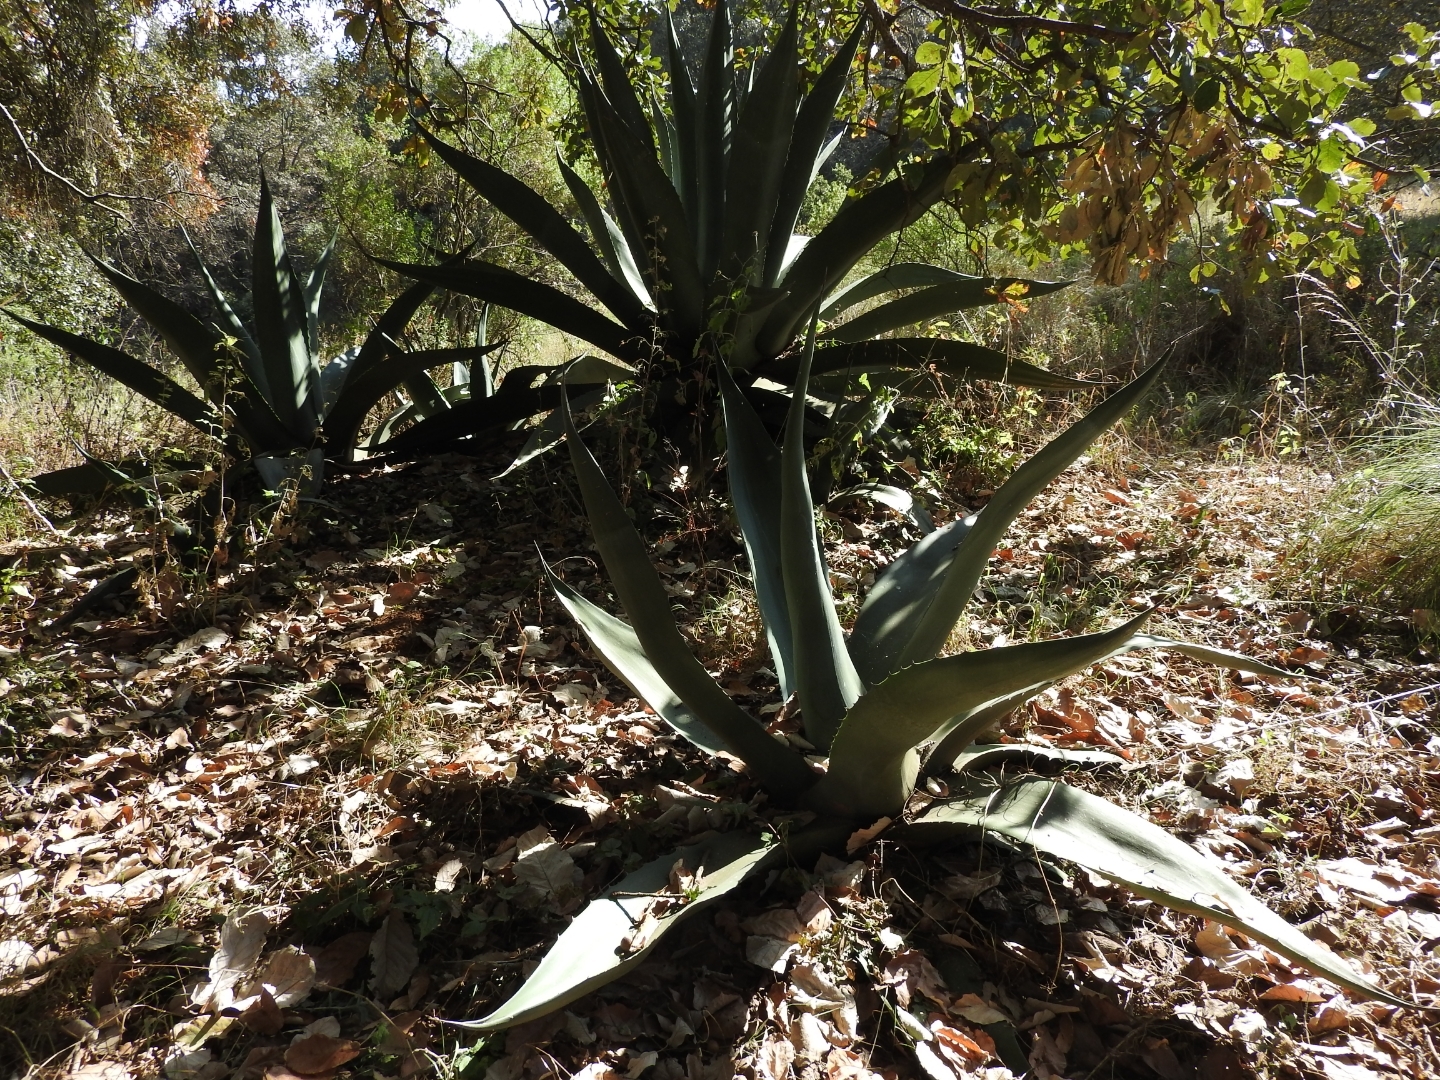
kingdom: Plantae
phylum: Tracheophyta
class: Liliopsida
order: Asparagales
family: Asparagaceae
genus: Agave
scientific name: Agave salmiana
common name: Pulque agave
